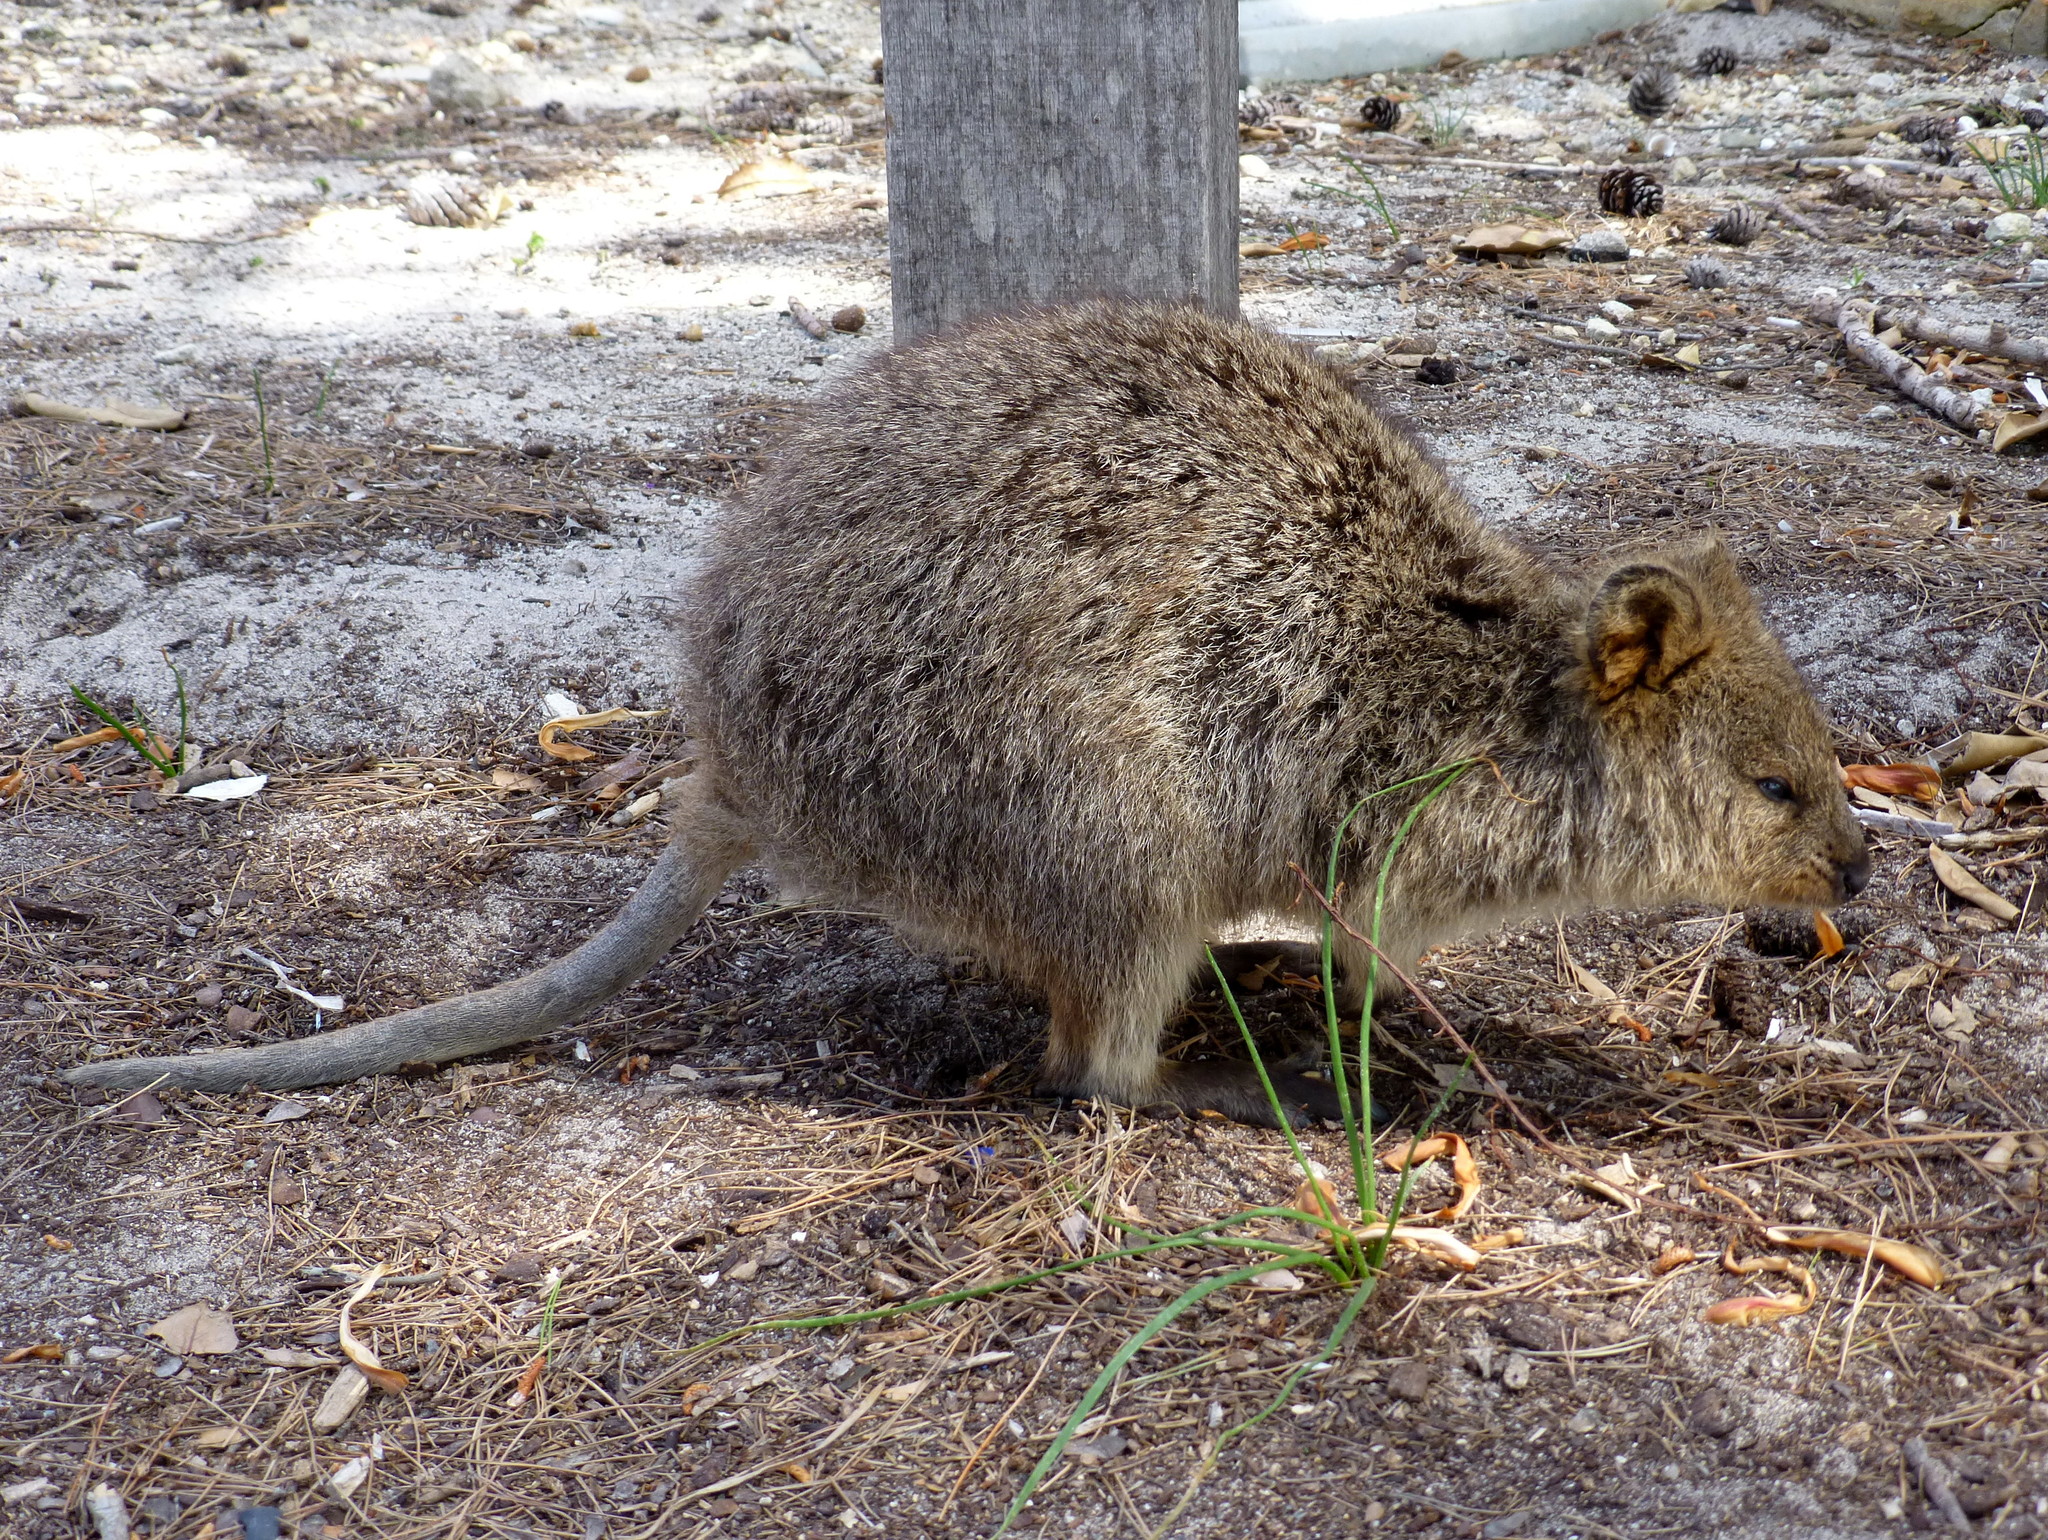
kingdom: Animalia
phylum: Chordata
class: Mammalia
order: Diprotodontia
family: Macropodidae
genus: Setonix
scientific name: Setonix brachyurus
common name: Quokka
